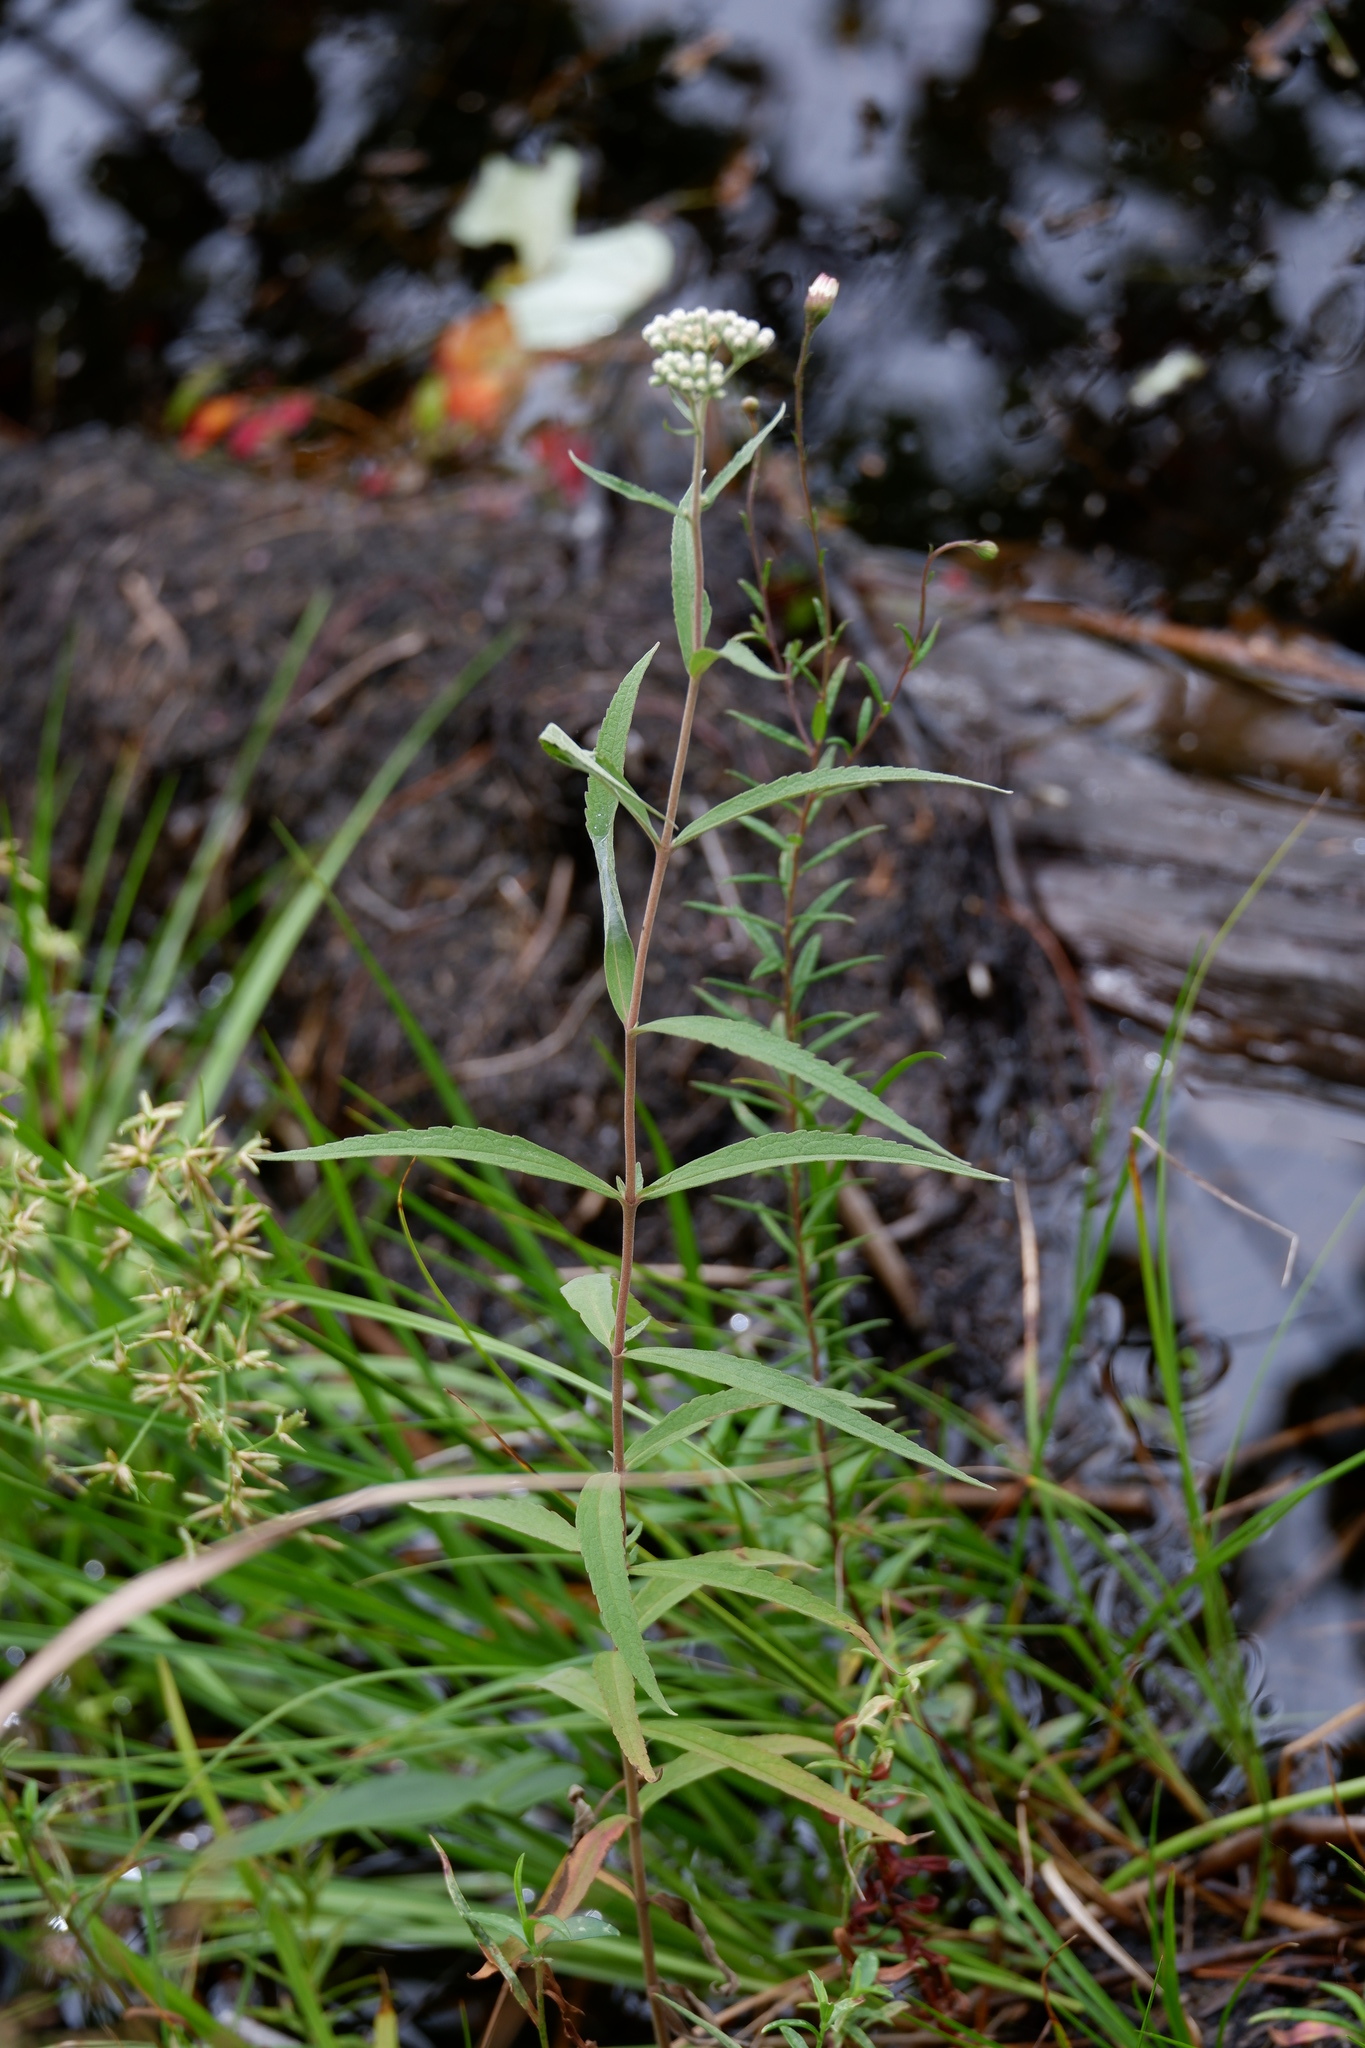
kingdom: Plantae
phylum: Tracheophyta
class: Magnoliopsida
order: Asterales
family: Asteraceae
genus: Eupatorium
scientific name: Eupatorium resinosum
